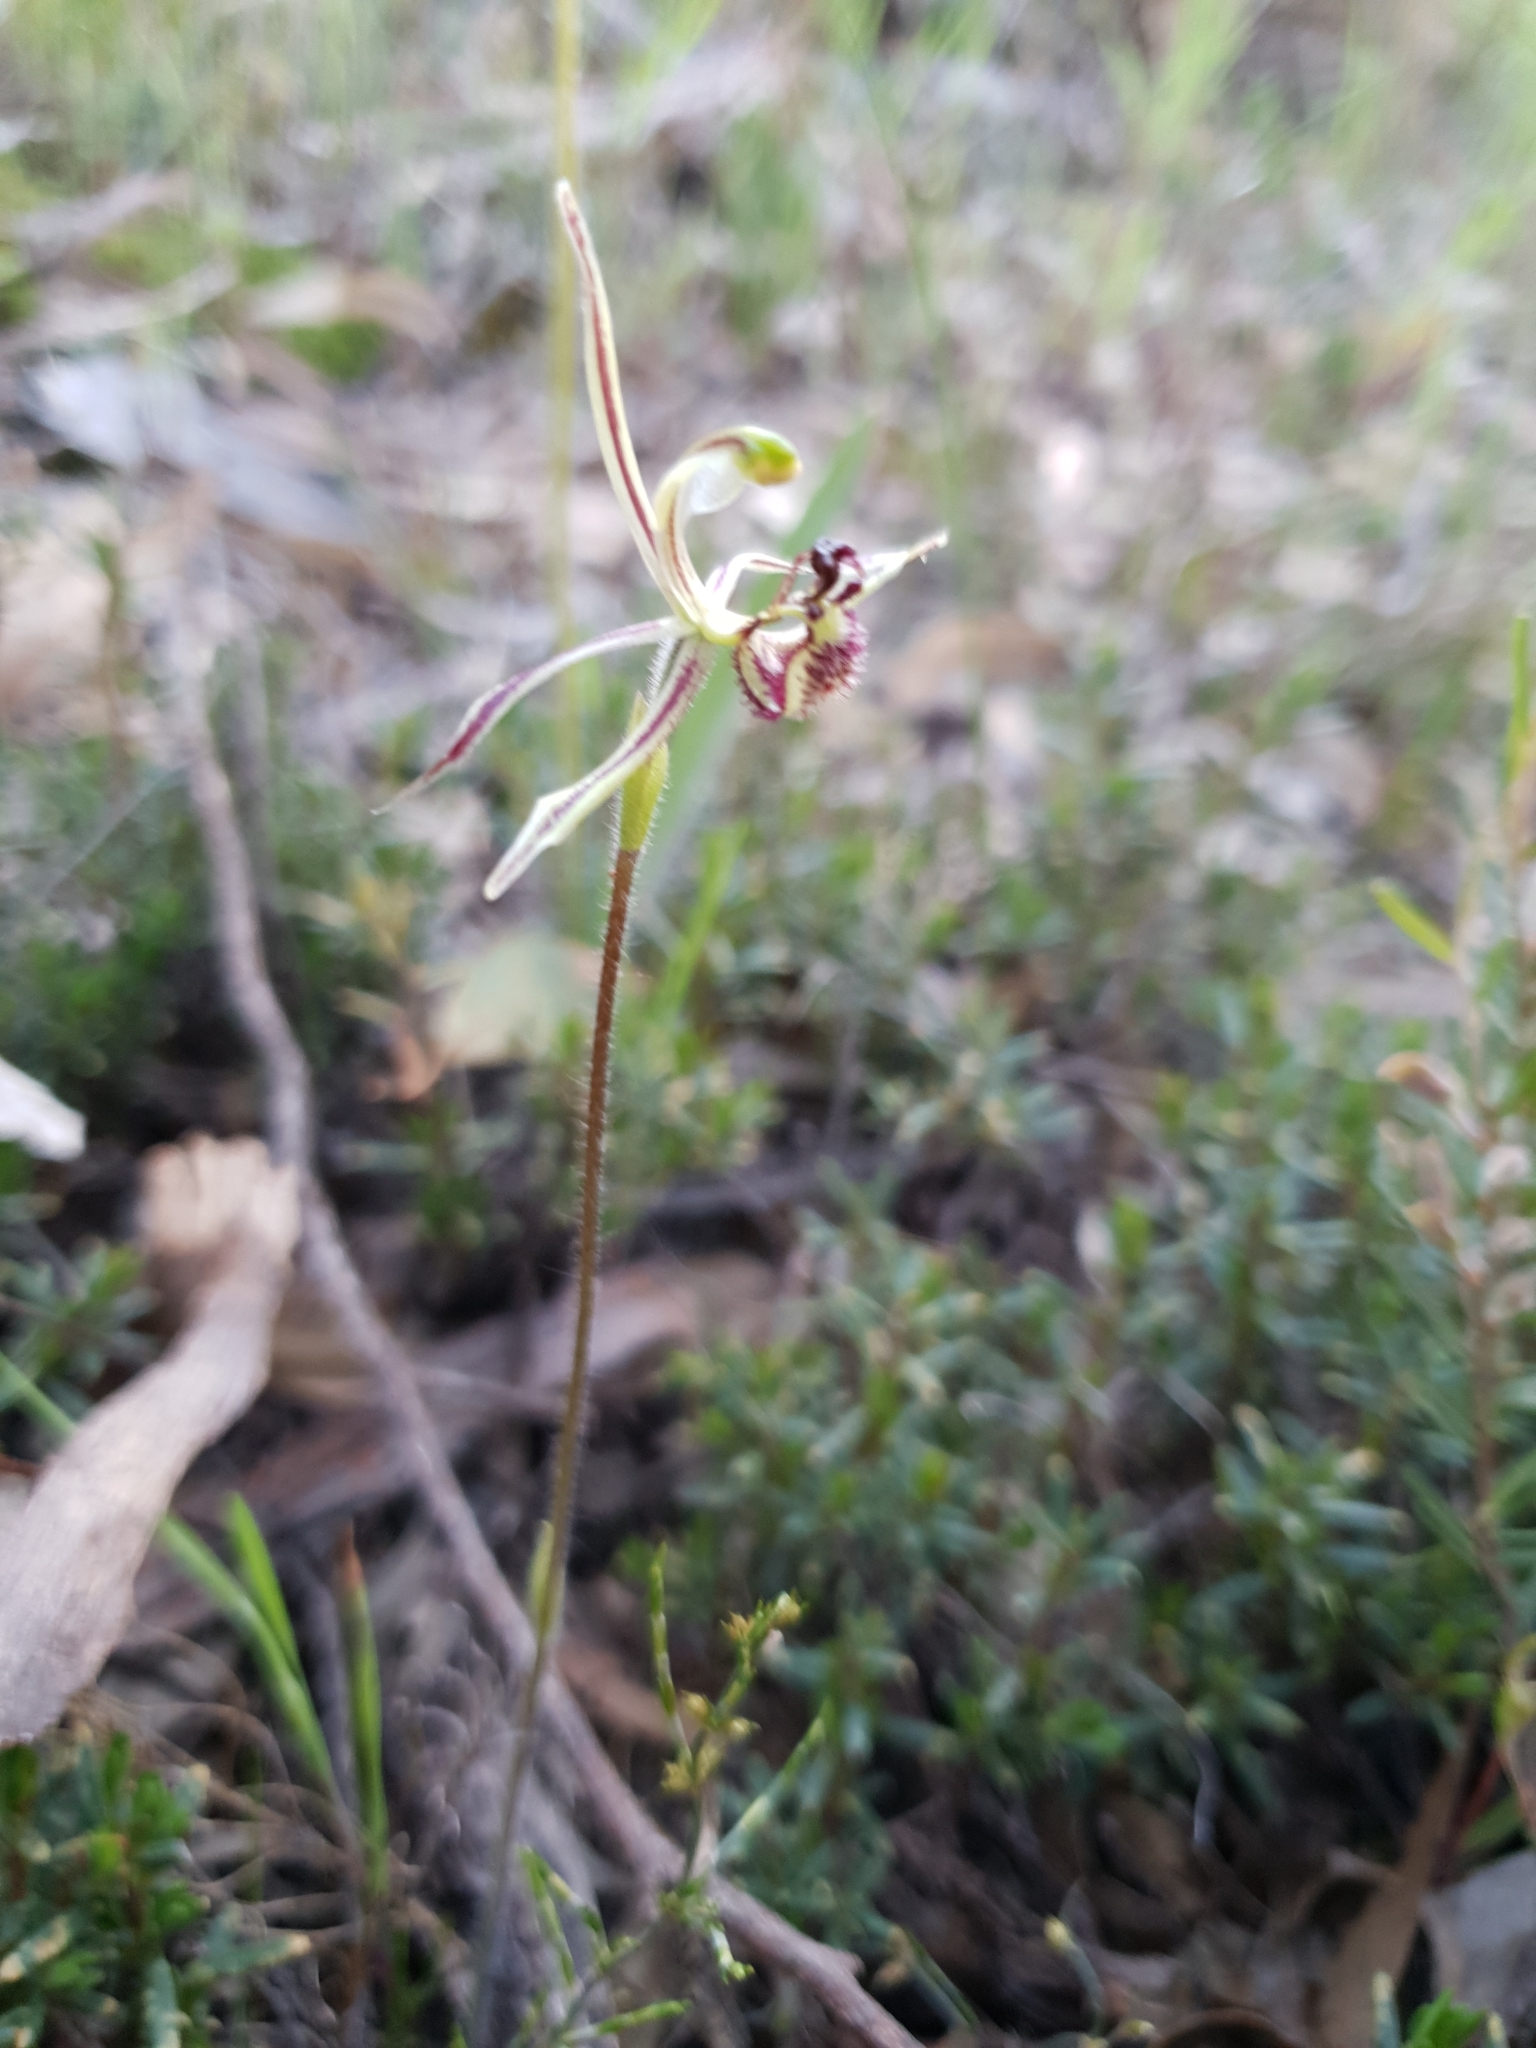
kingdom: Plantae
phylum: Tracheophyta
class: Liliopsida
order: Asparagales
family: Orchidaceae
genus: Caladenia
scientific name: Caladenia barbarossa
